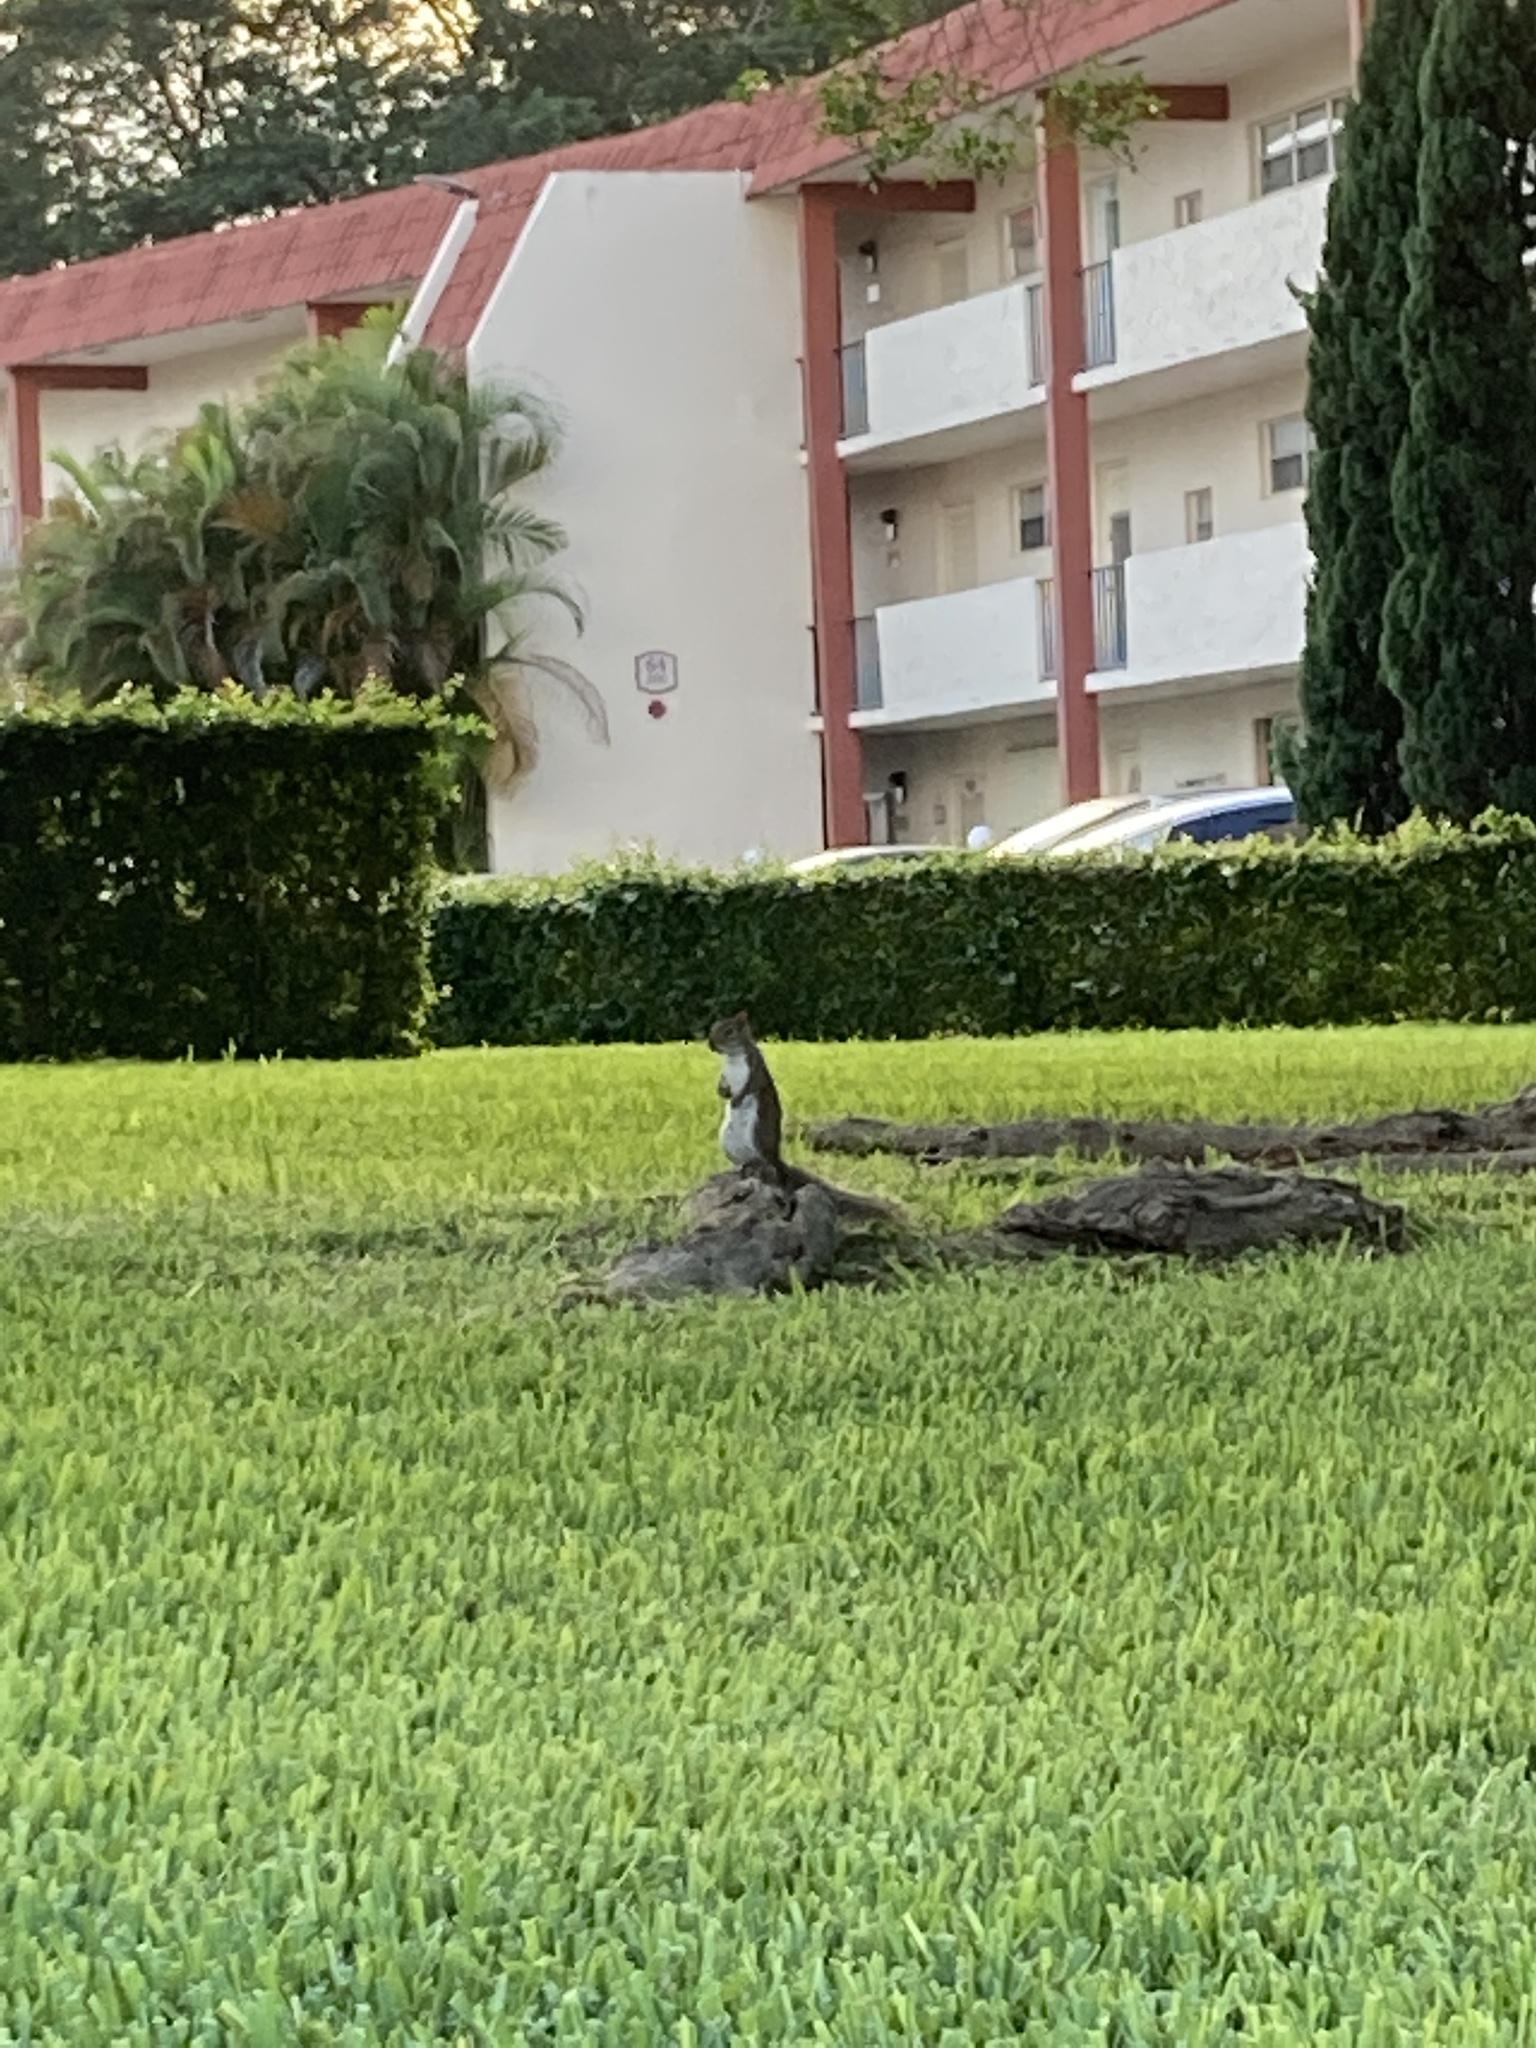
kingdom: Animalia
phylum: Chordata
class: Mammalia
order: Rodentia
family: Sciuridae
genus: Sciurus
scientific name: Sciurus carolinensis
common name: Eastern gray squirrel
